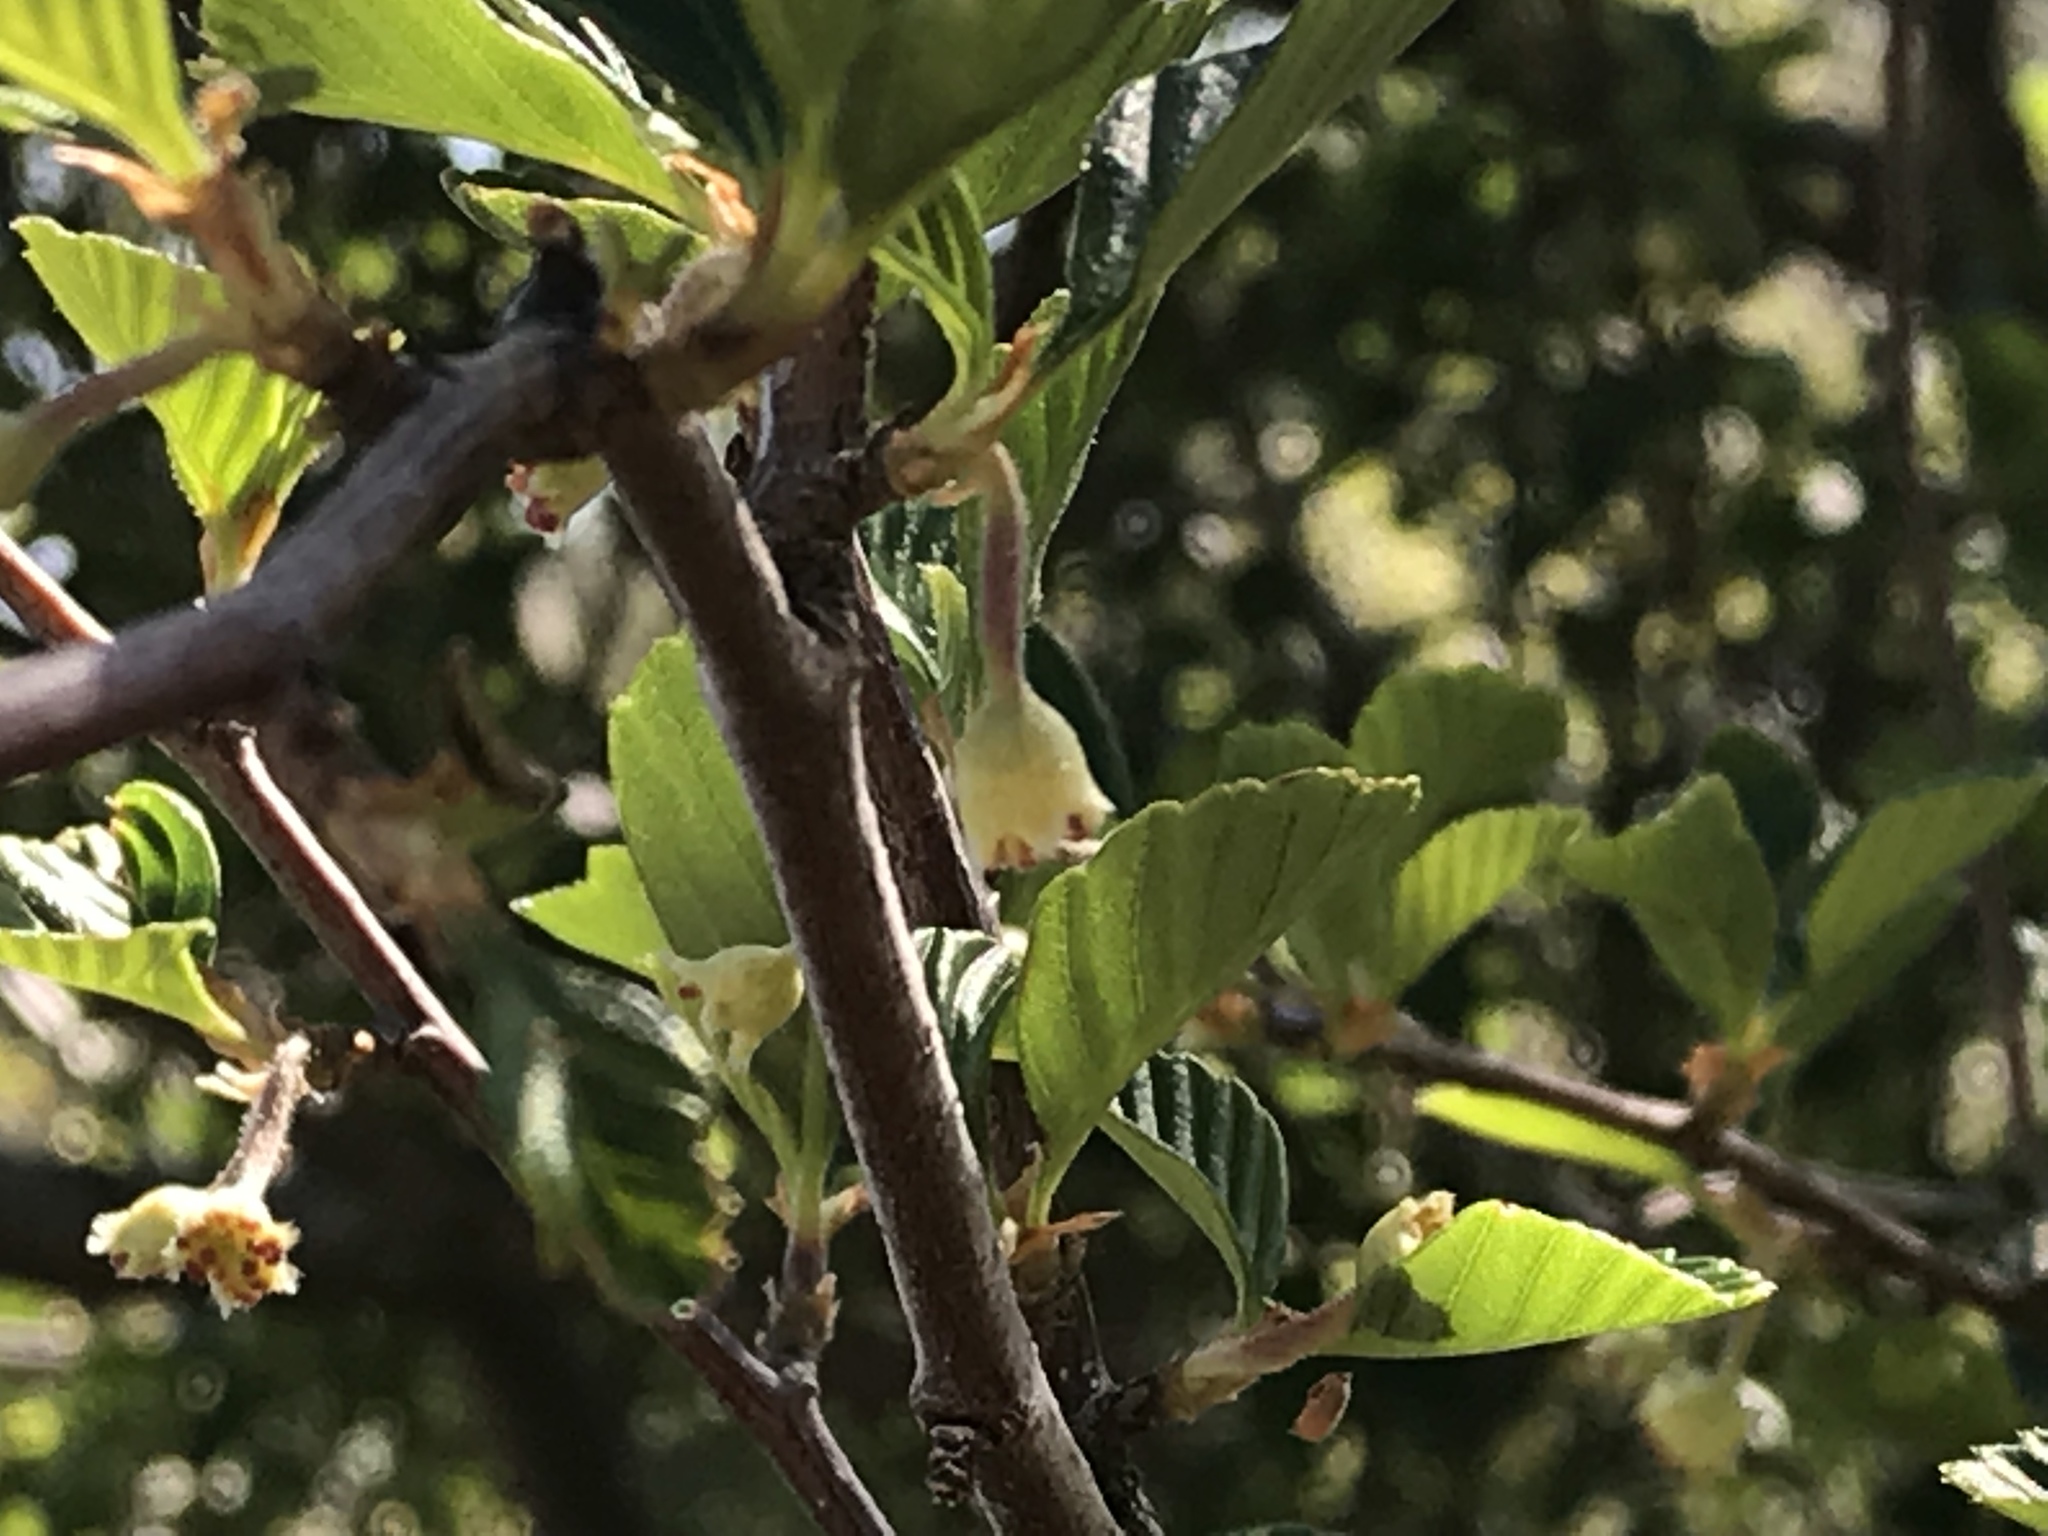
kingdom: Plantae
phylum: Tracheophyta
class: Magnoliopsida
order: Rosales
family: Rosaceae
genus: Cercocarpus
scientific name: Cercocarpus betuloides
